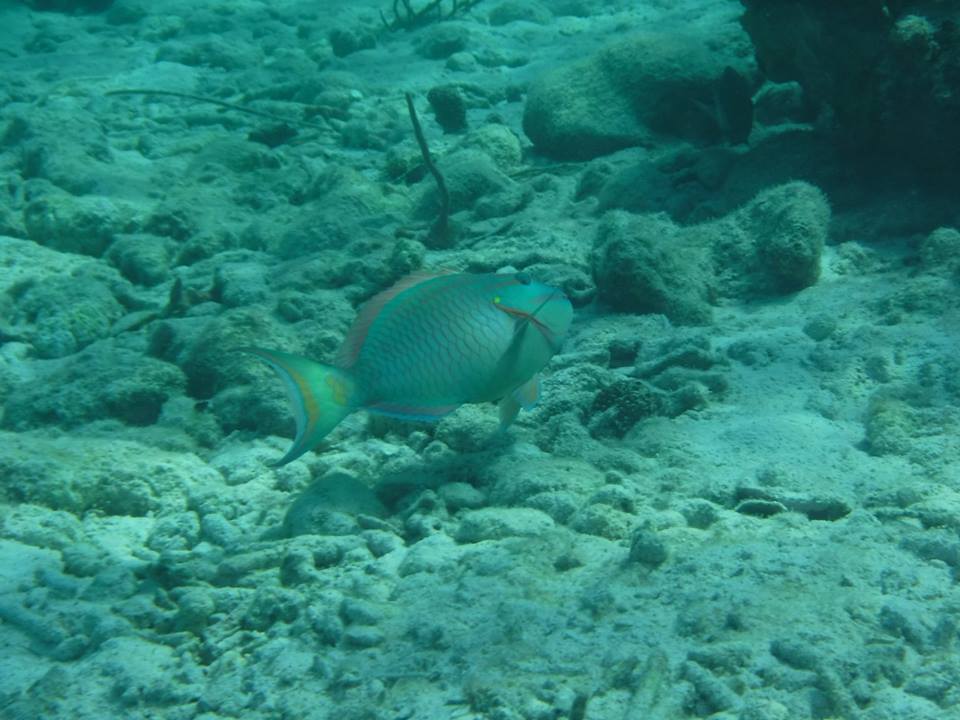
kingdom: Animalia
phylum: Chordata
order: Perciformes
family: Scaridae
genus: Sparisoma
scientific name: Sparisoma viride
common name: Stoplight parrotfish
